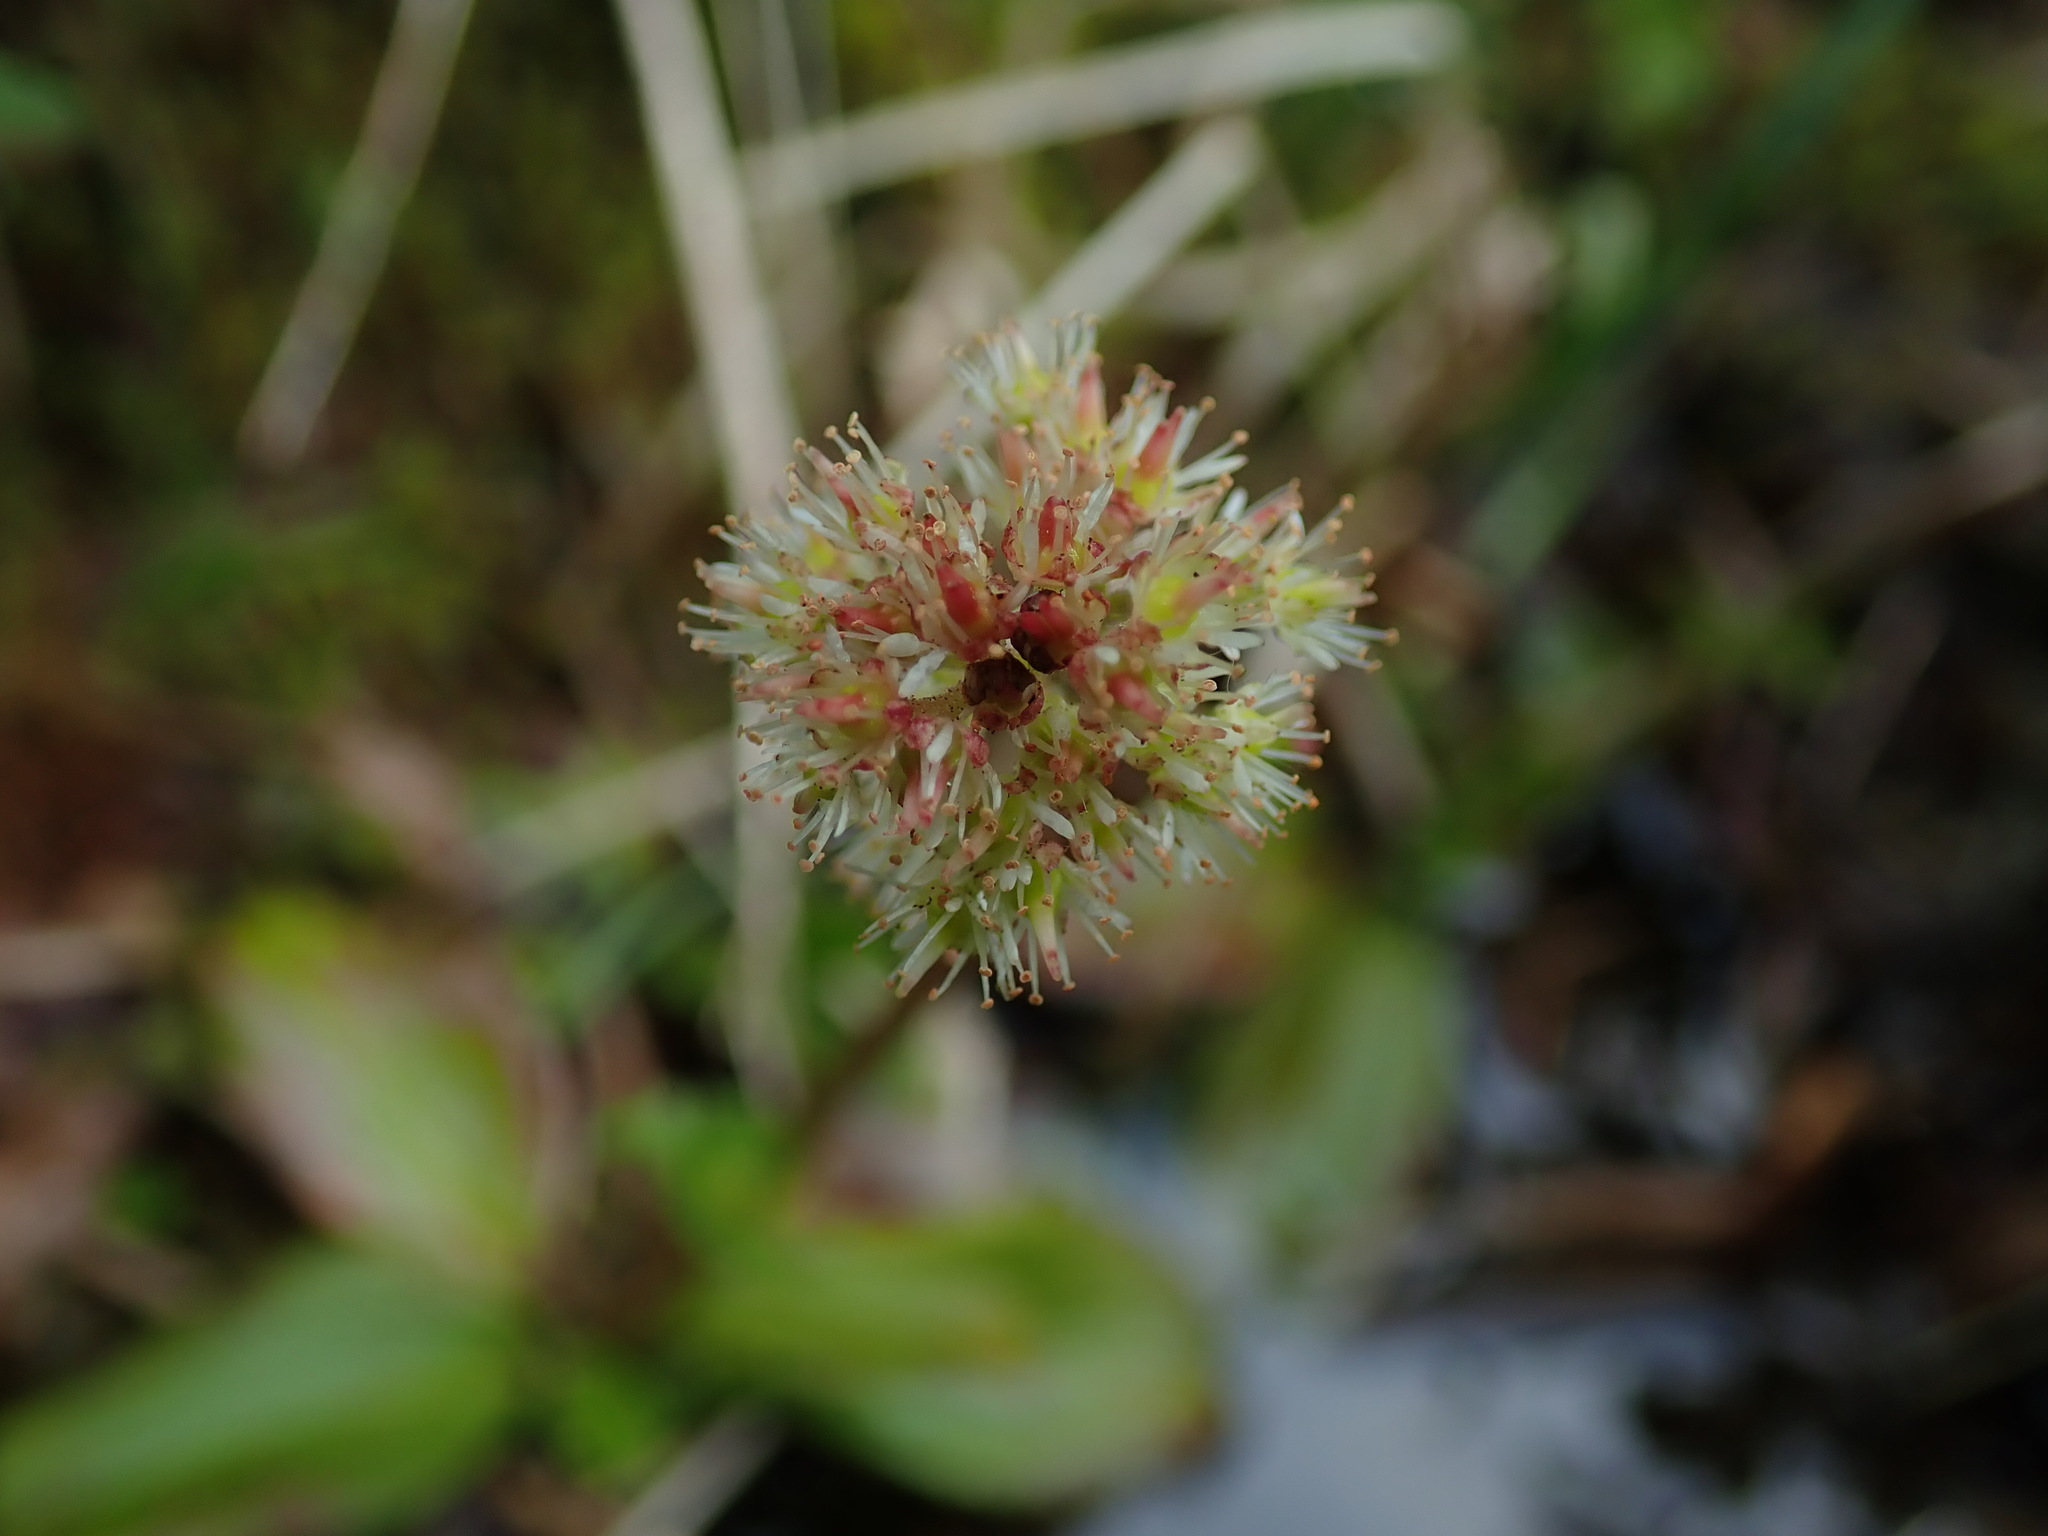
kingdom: Plantae
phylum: Tracheophyta
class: Magnoliopsida
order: Saxifragales
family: Saxifragaceae
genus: Leptarrhena
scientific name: Leptarrhena pyrolifolia
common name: Leatherleaf-saxifrage
